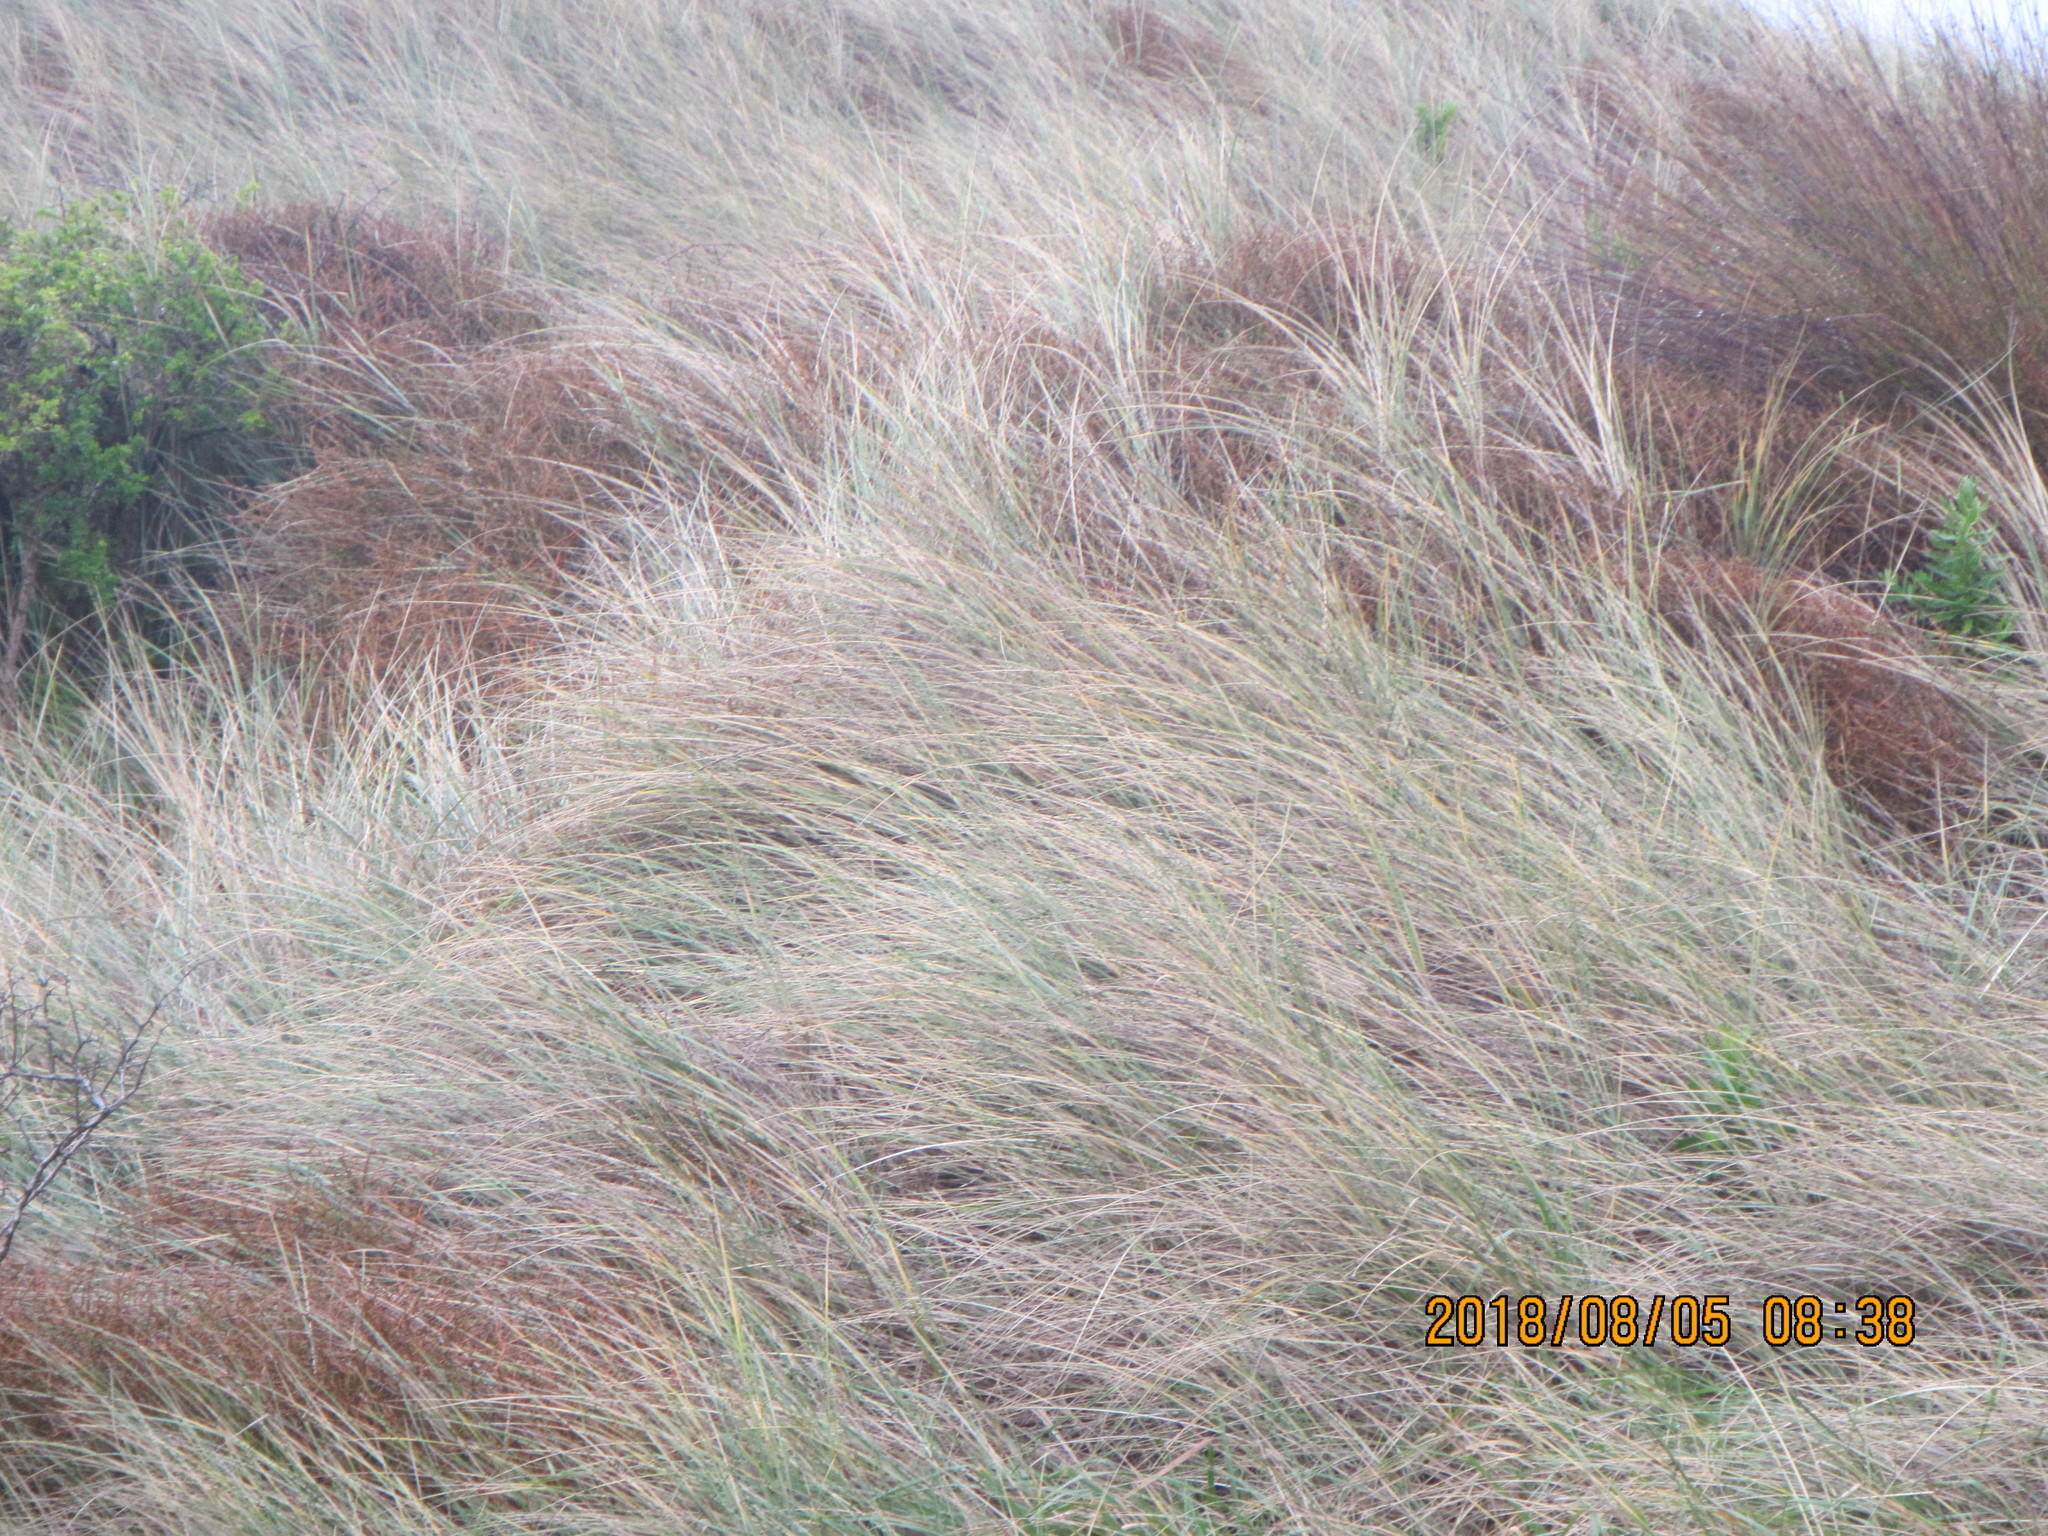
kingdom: Plantae
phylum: Tracheophyta
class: Magnoliopsida
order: Gentianales
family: Rubiaceae
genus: Coprosma
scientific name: Coprosma acerosa
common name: Sand coprosma
